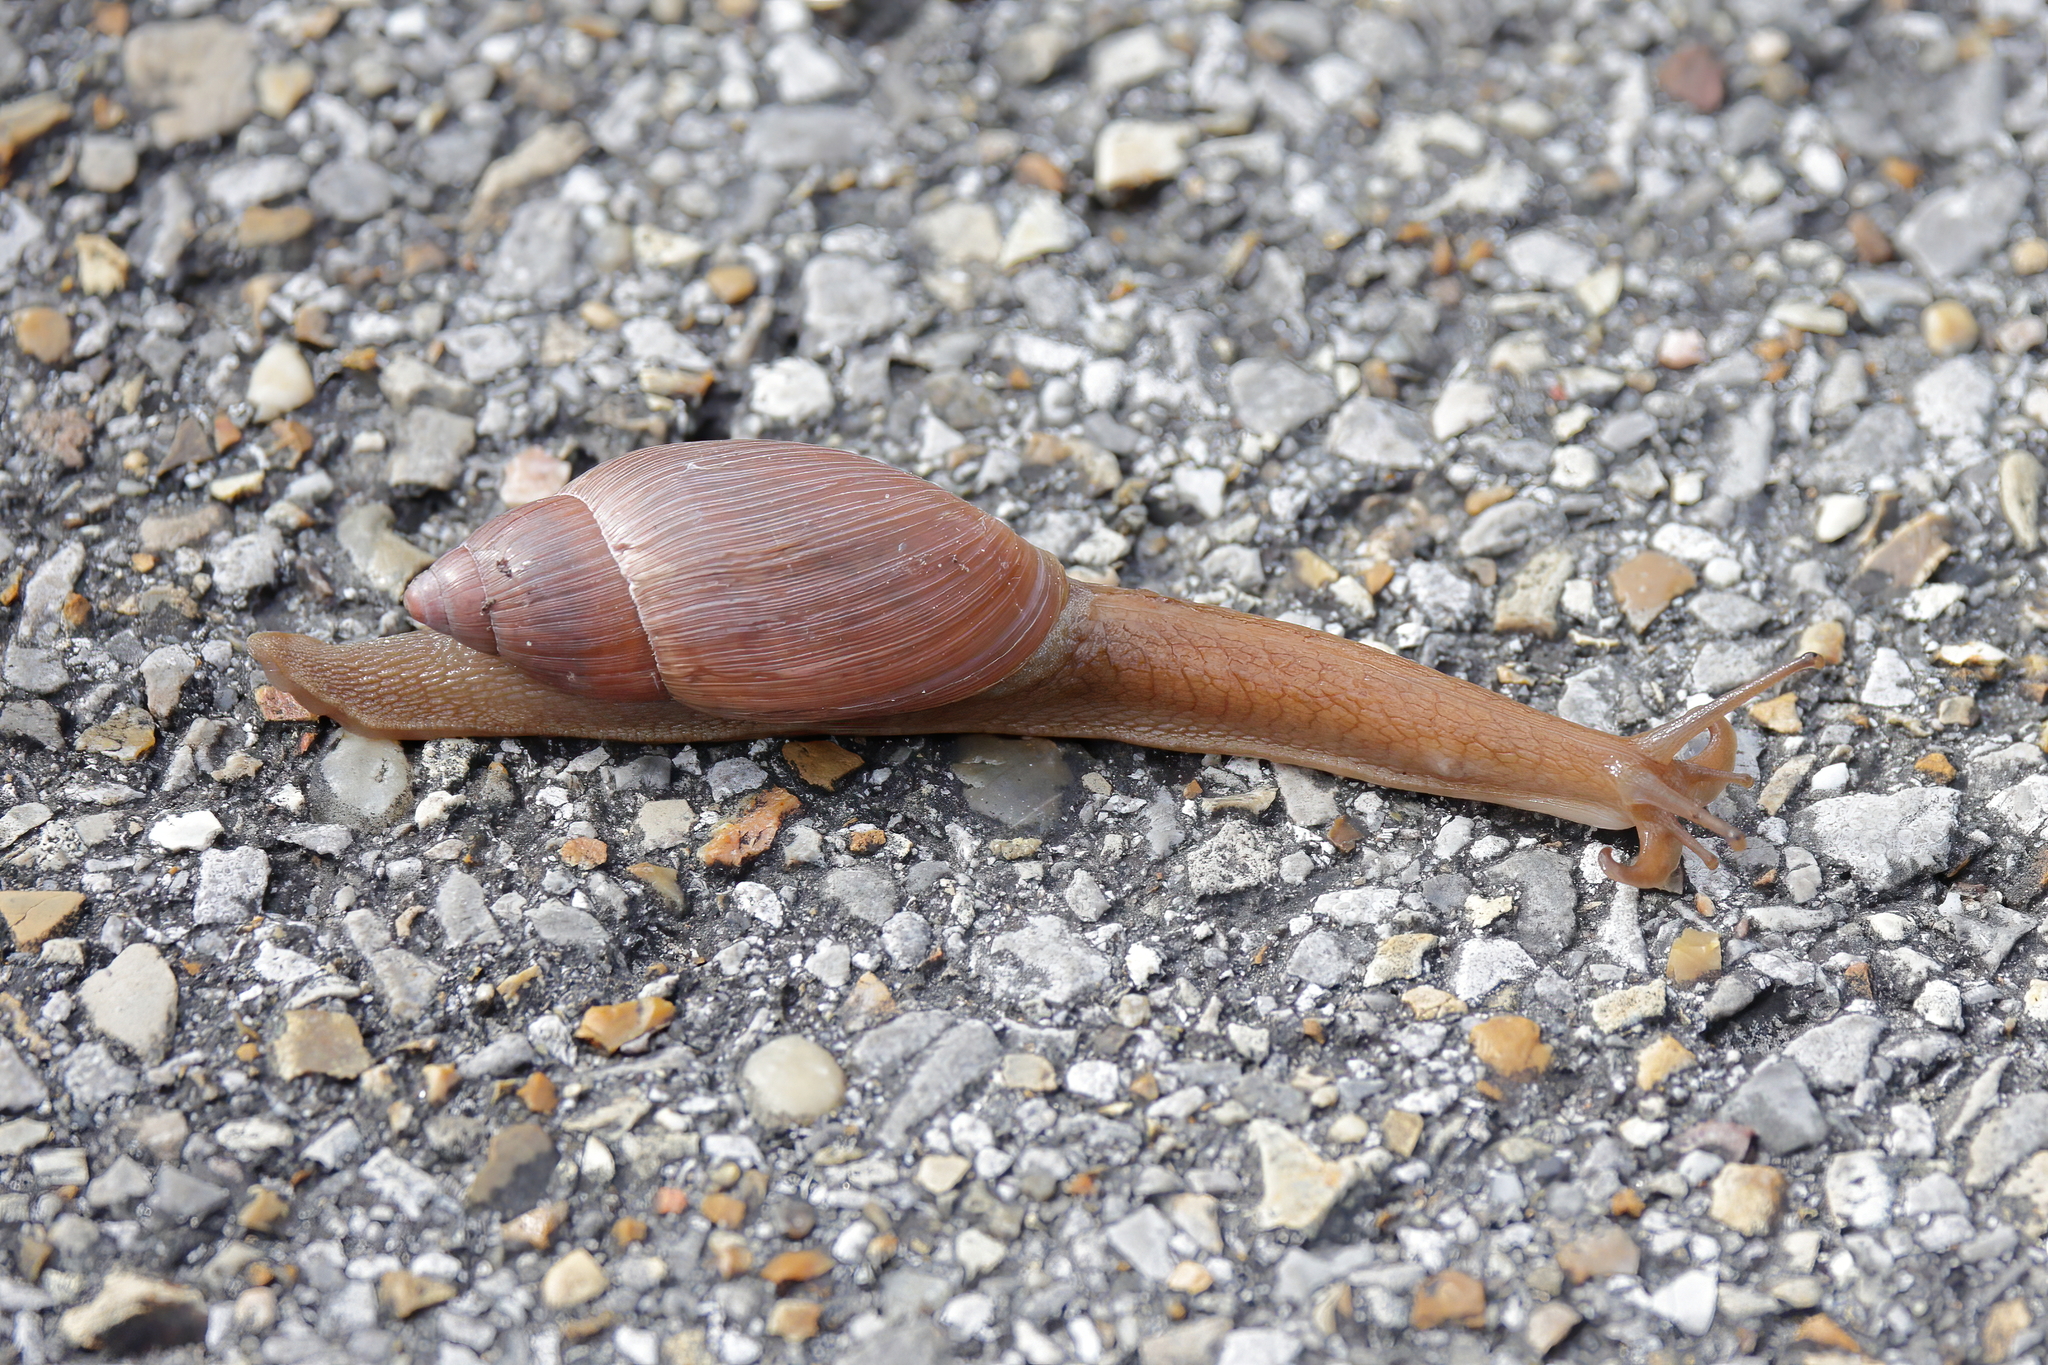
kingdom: Animalia
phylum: Mollusca
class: Gastropoda
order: Stylommatophora
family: Spiraxidae
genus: Euglandina
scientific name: Euglandina rosea
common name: Rosy wolfsnail
